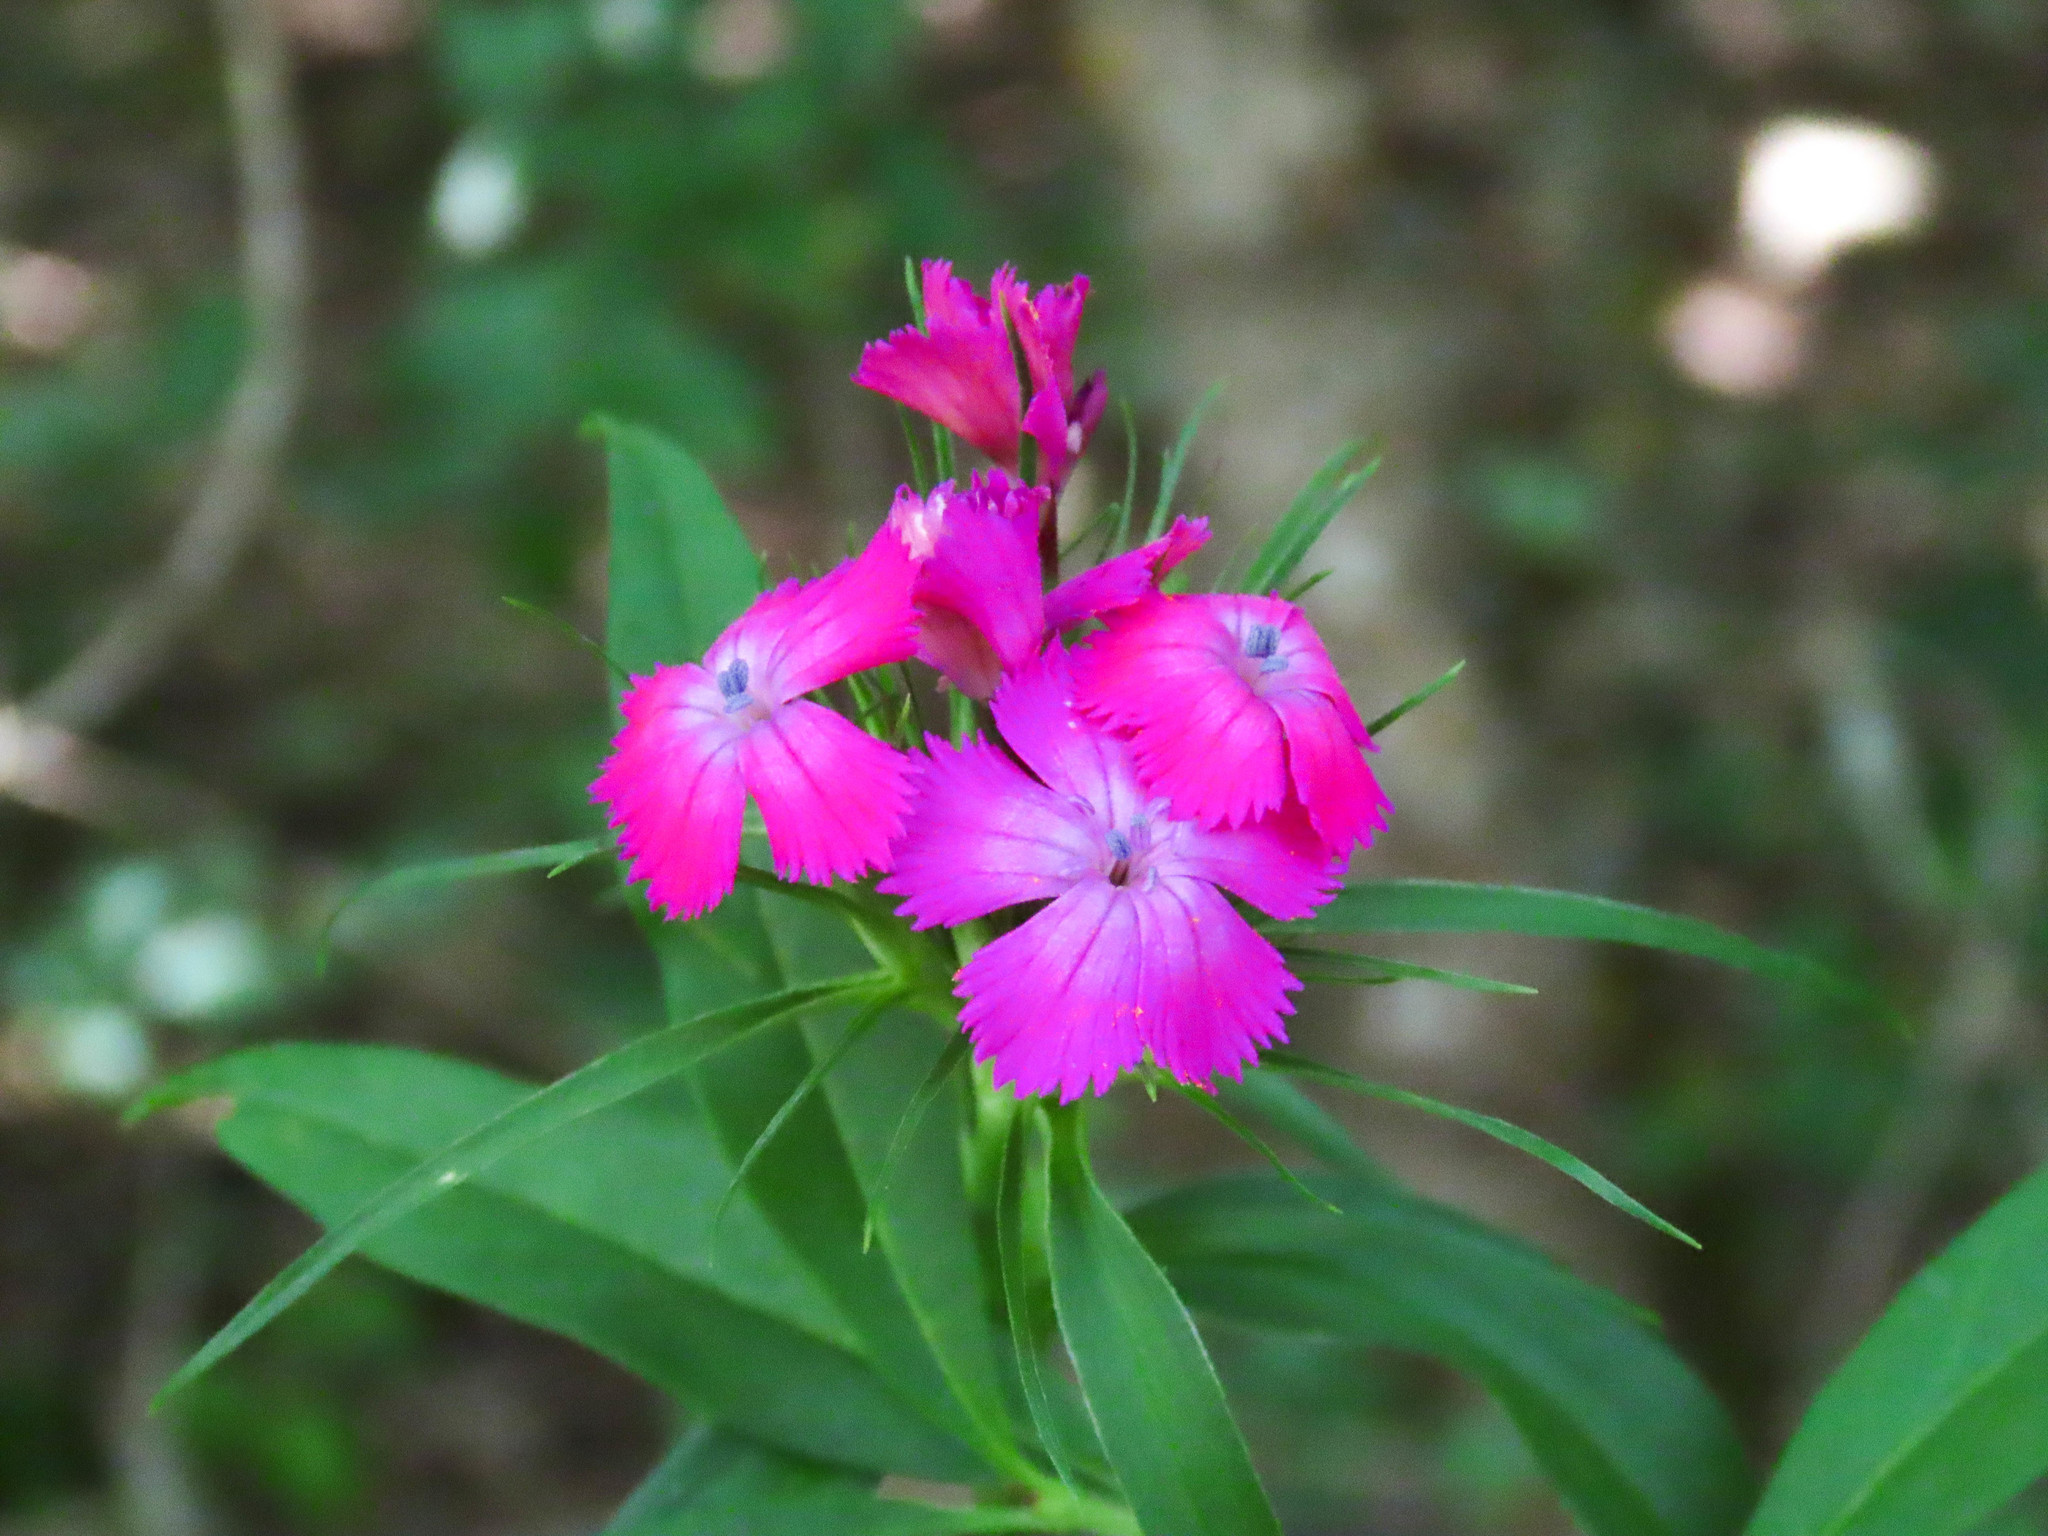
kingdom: Plantae
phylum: Tracheophyta
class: Magnoliopsida
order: Caryophyllales
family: Caryophyllaceae
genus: Dianthus
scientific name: Dianthus barbatus
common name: Sweet-william
